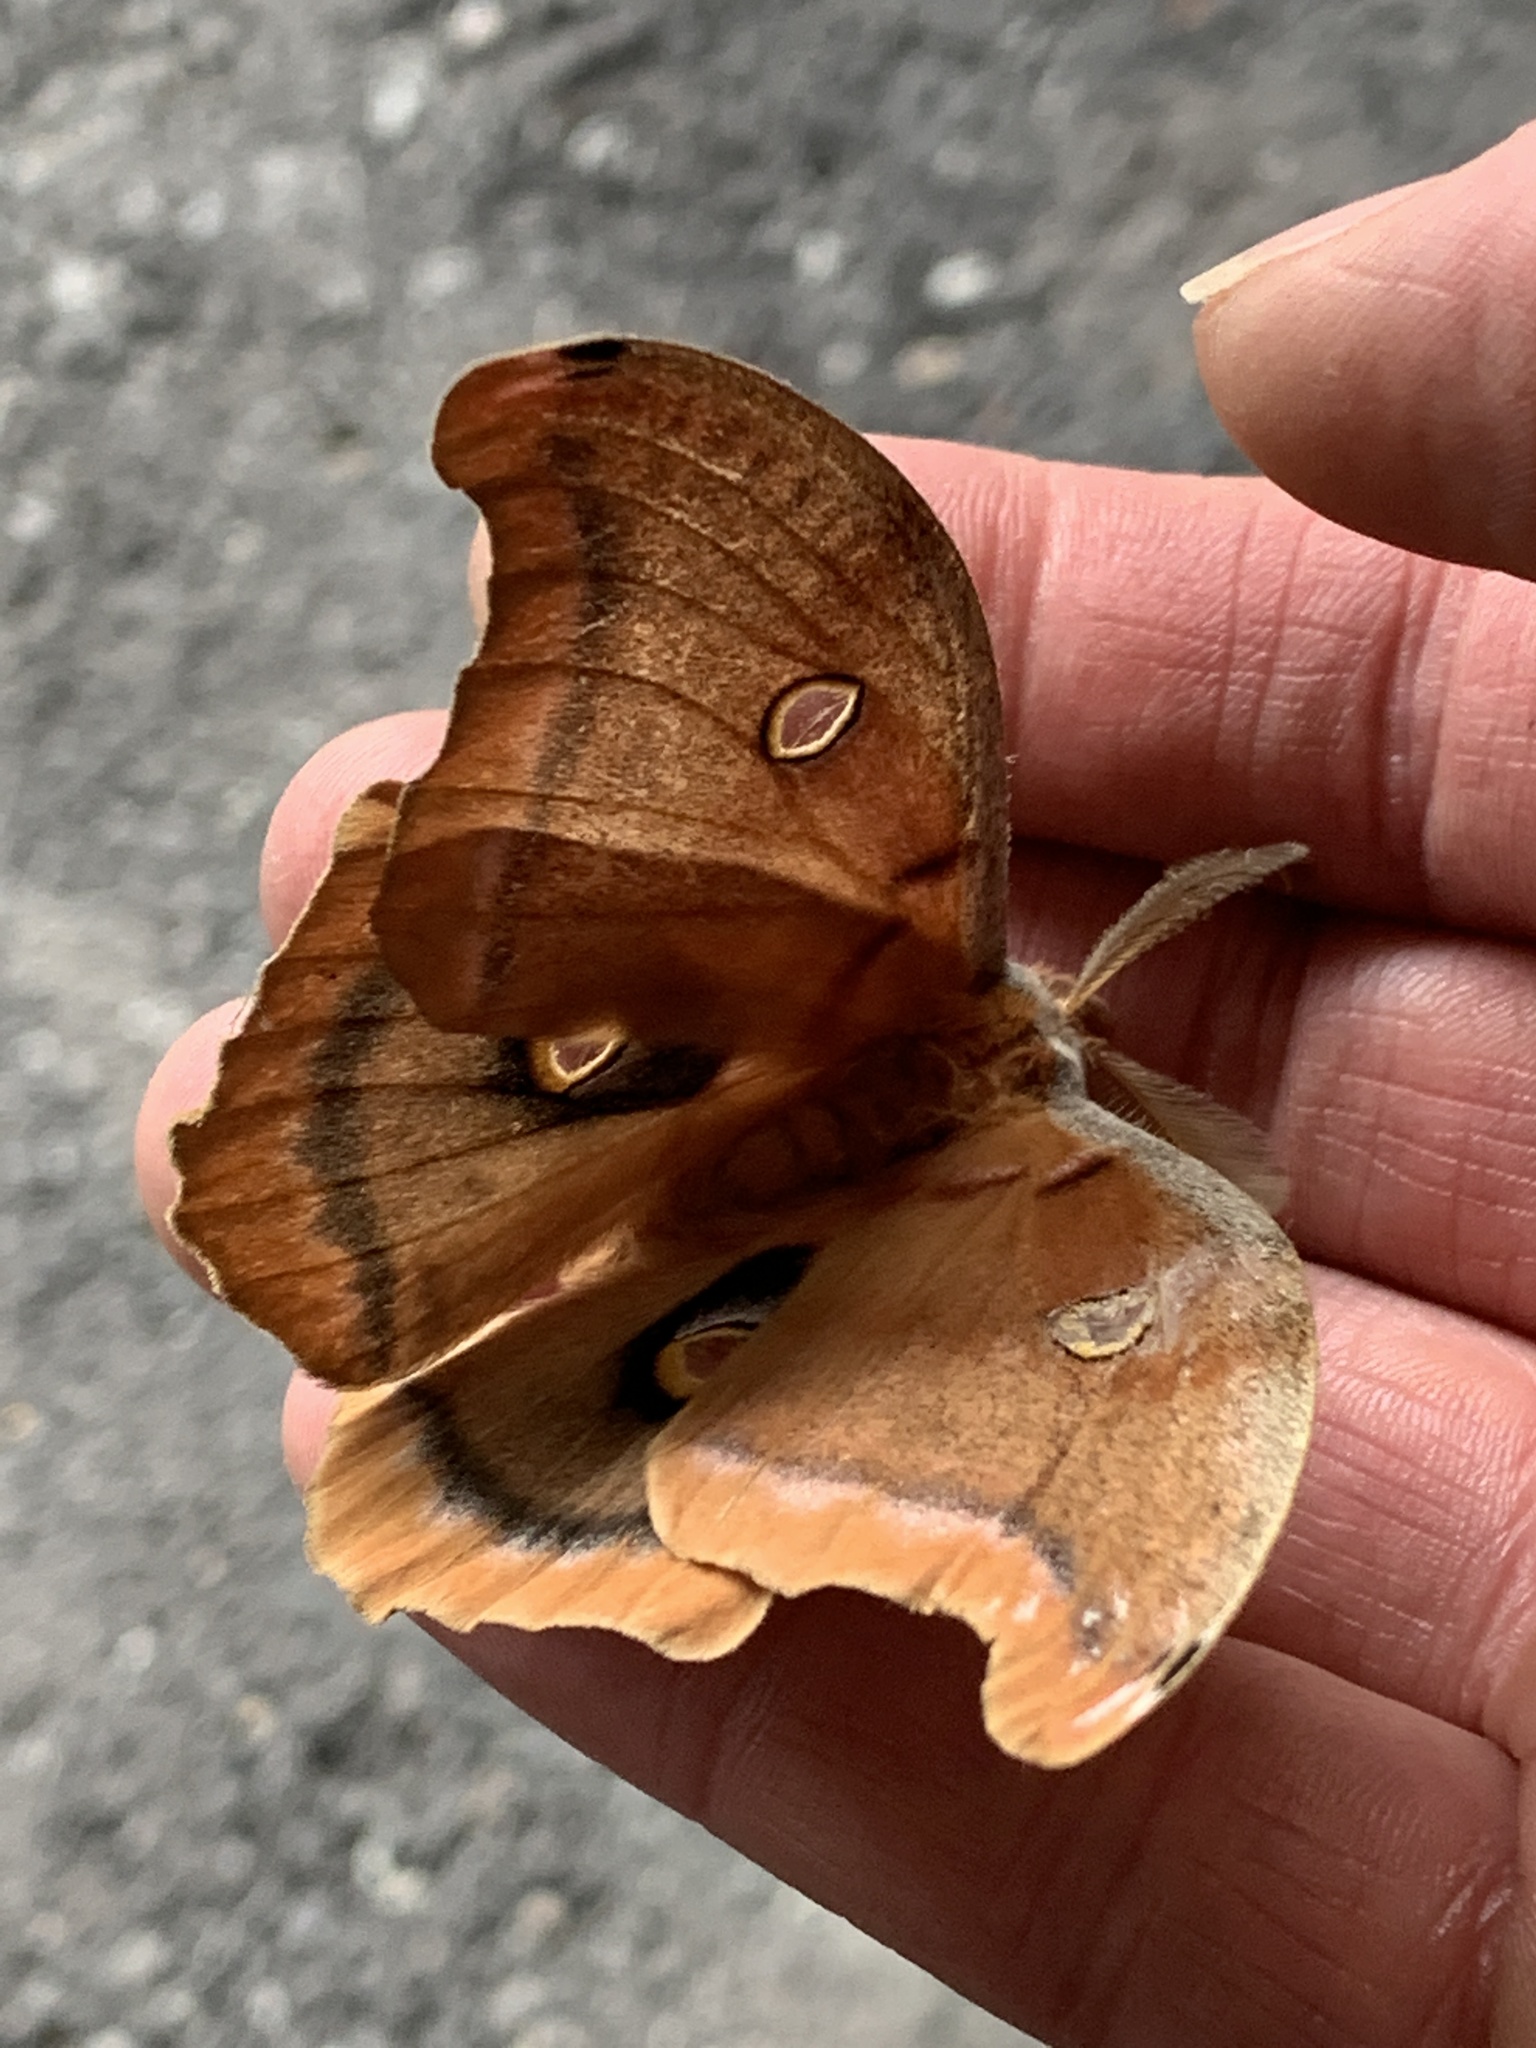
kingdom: Animalia
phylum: Arthropoda
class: Insecta
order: Lepidoptera
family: Saturniidae
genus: Antheraea
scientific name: Antheraea polyphemus
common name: Polyphemus moth
